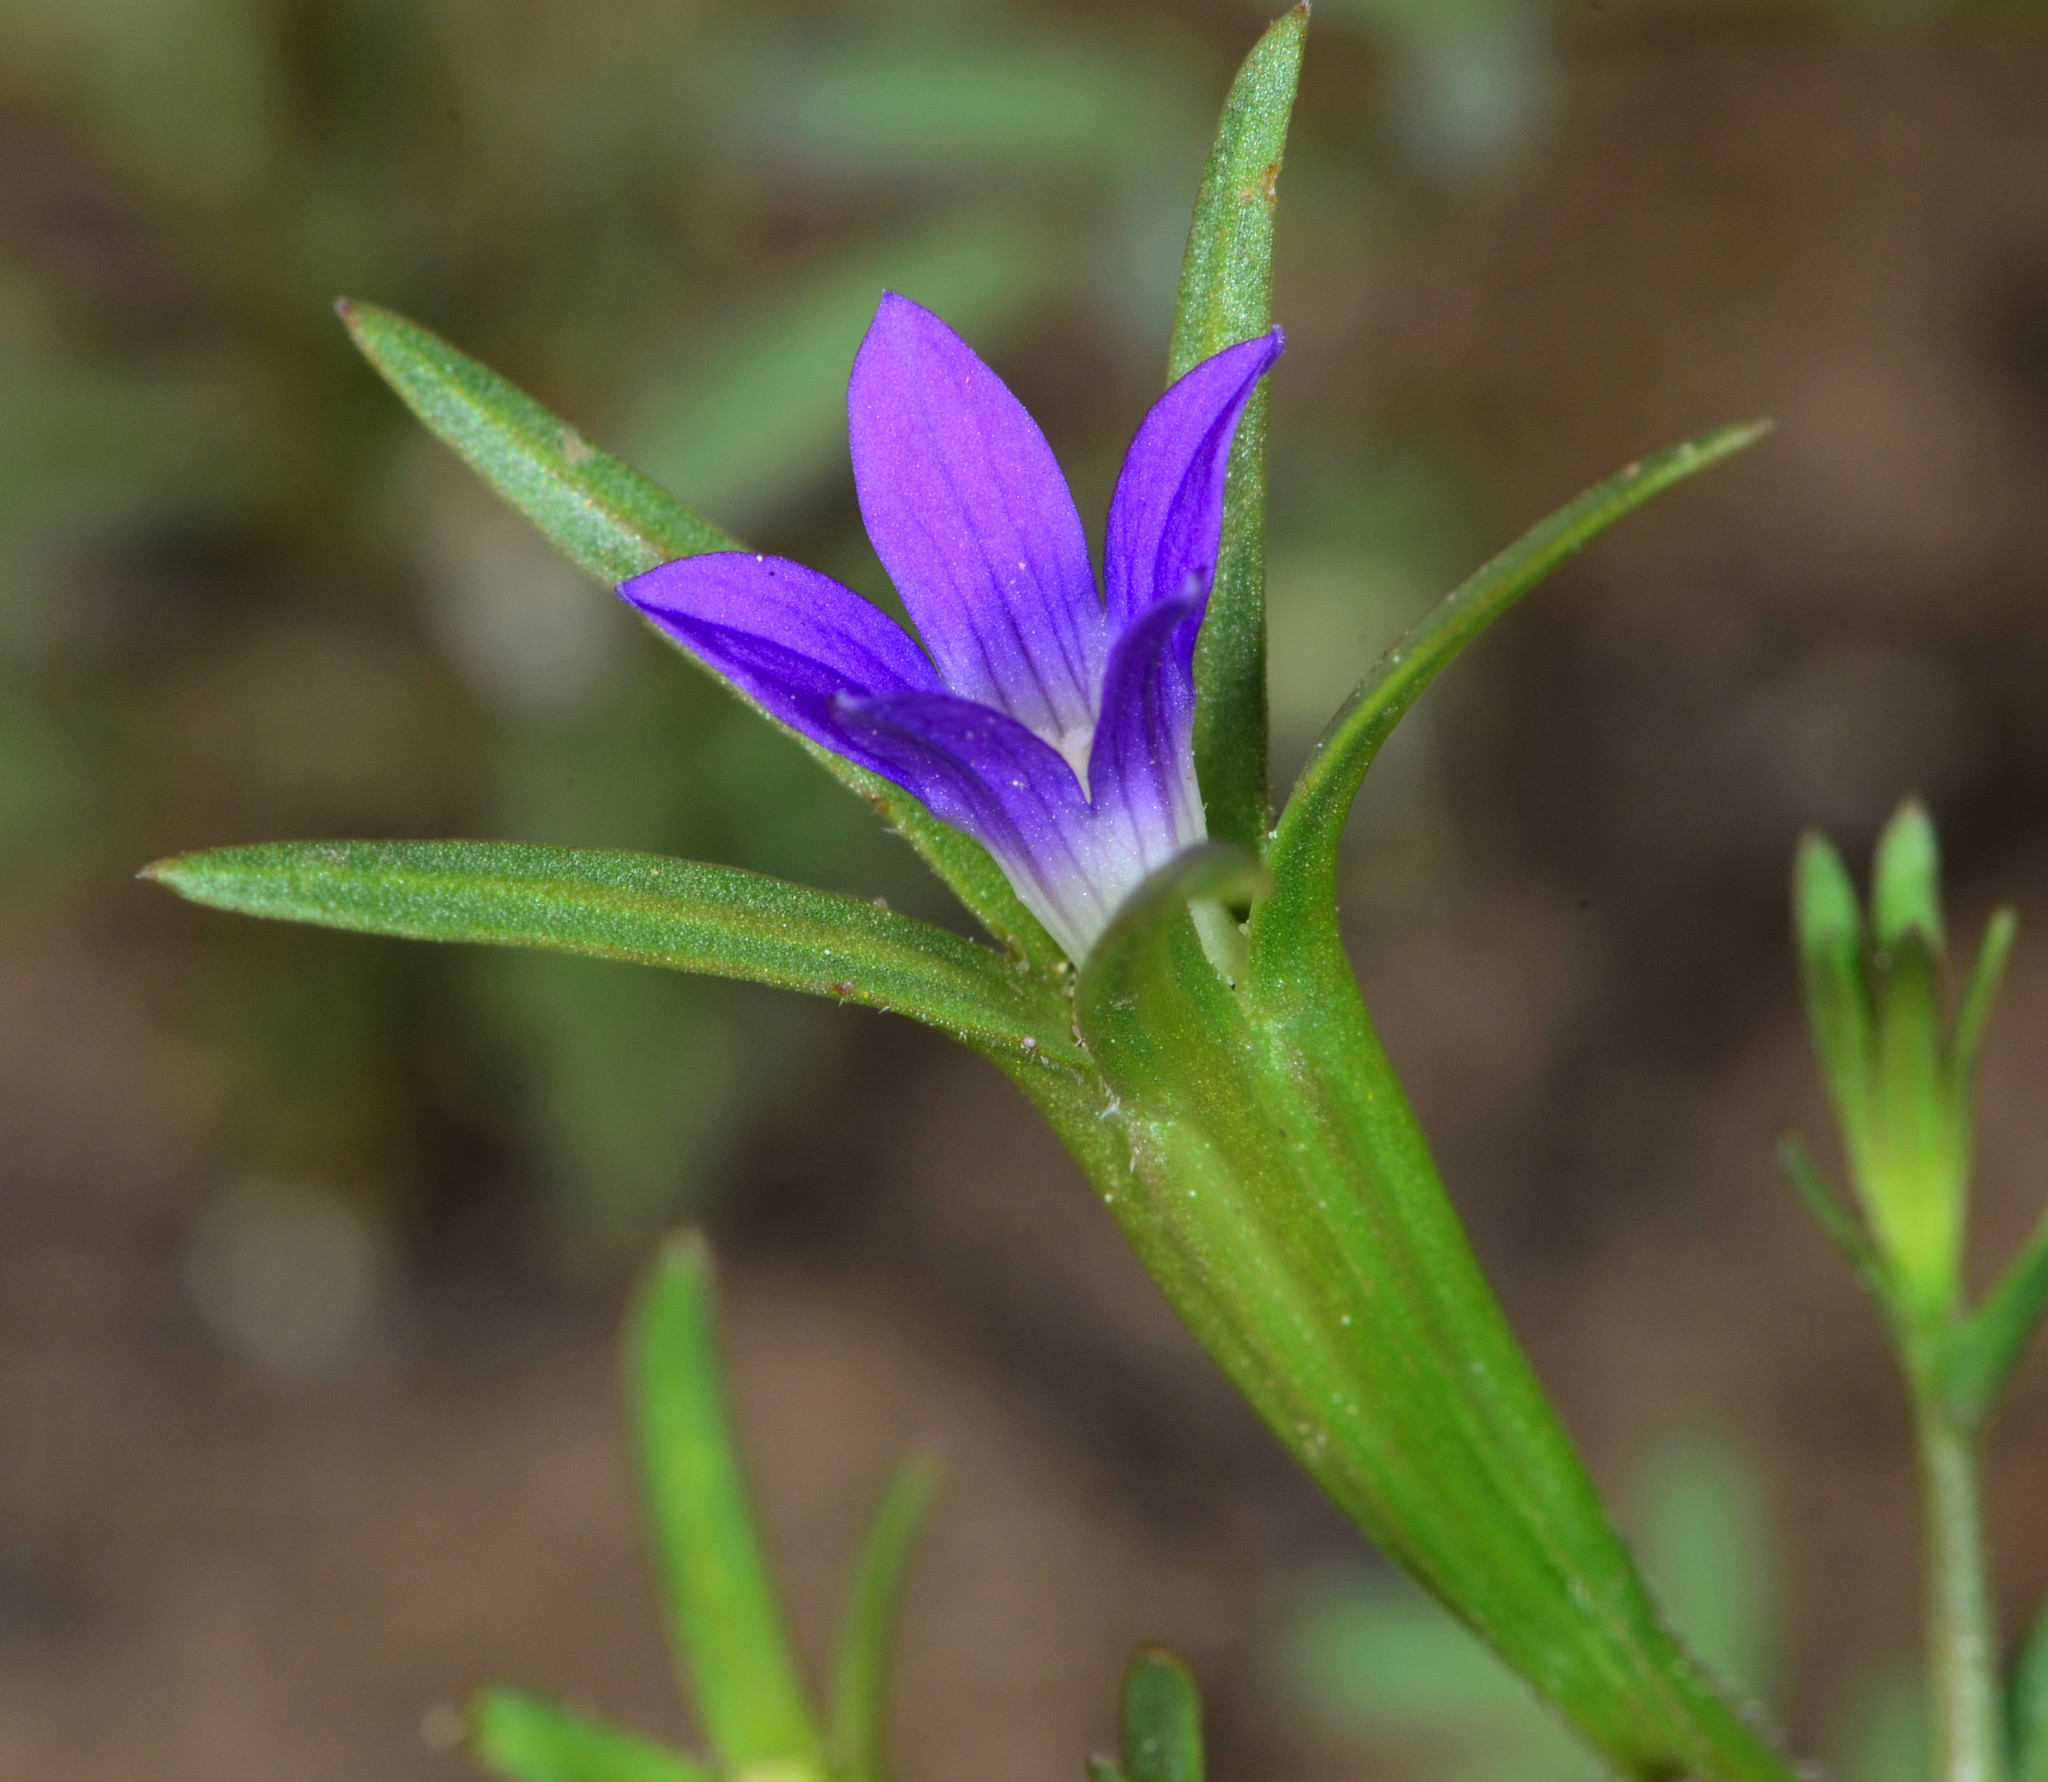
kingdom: Plantae
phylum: Tracheophyta
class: Magnoliopsida
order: Asterales
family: Campanulaceae
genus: Githopsis
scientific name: Githopsis specularioides
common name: Common bluecup
